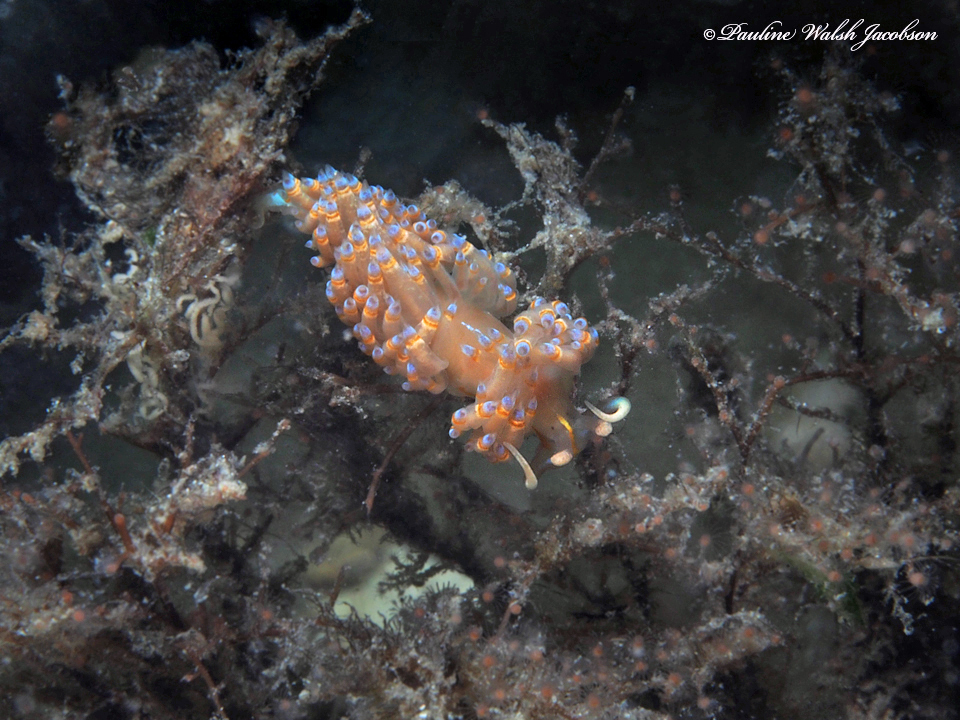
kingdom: Animalia
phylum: Mollusca
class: Gastropoda
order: Nudibranchia
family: Myrrhinidae
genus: Dondice
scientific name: Dondice jupiteriensis
